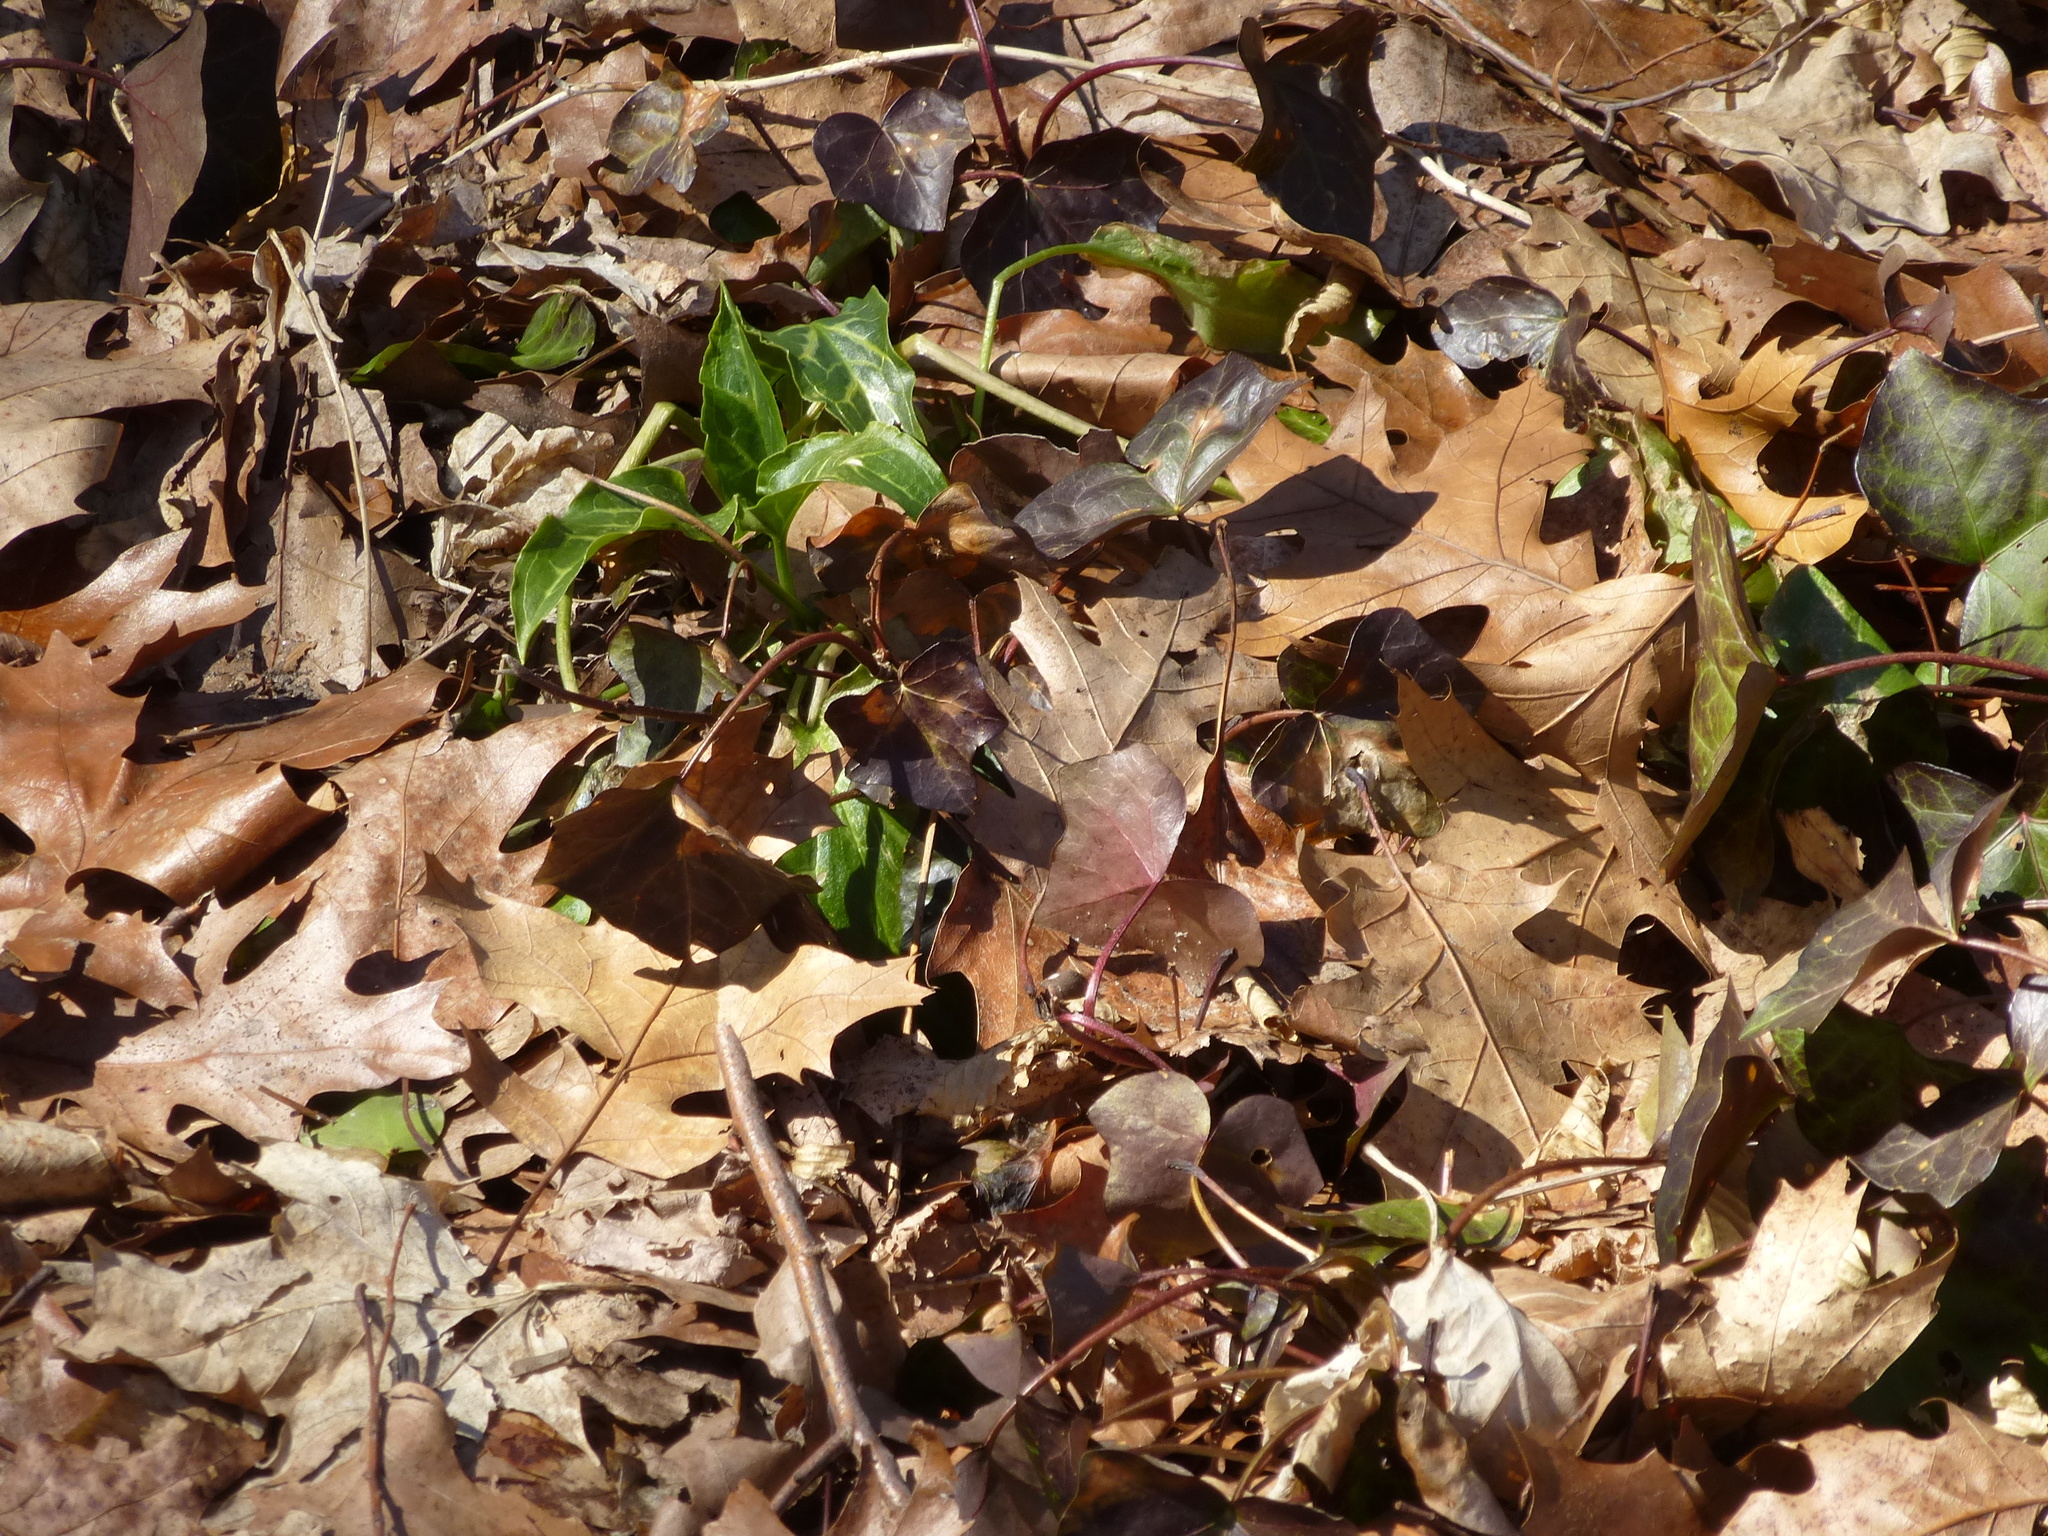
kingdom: Plantae
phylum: Tracheophyta
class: Liliopsida
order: Alismatales
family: Araceae
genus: Arum
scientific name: Arum italicum
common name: Italian lords-and-ladies
